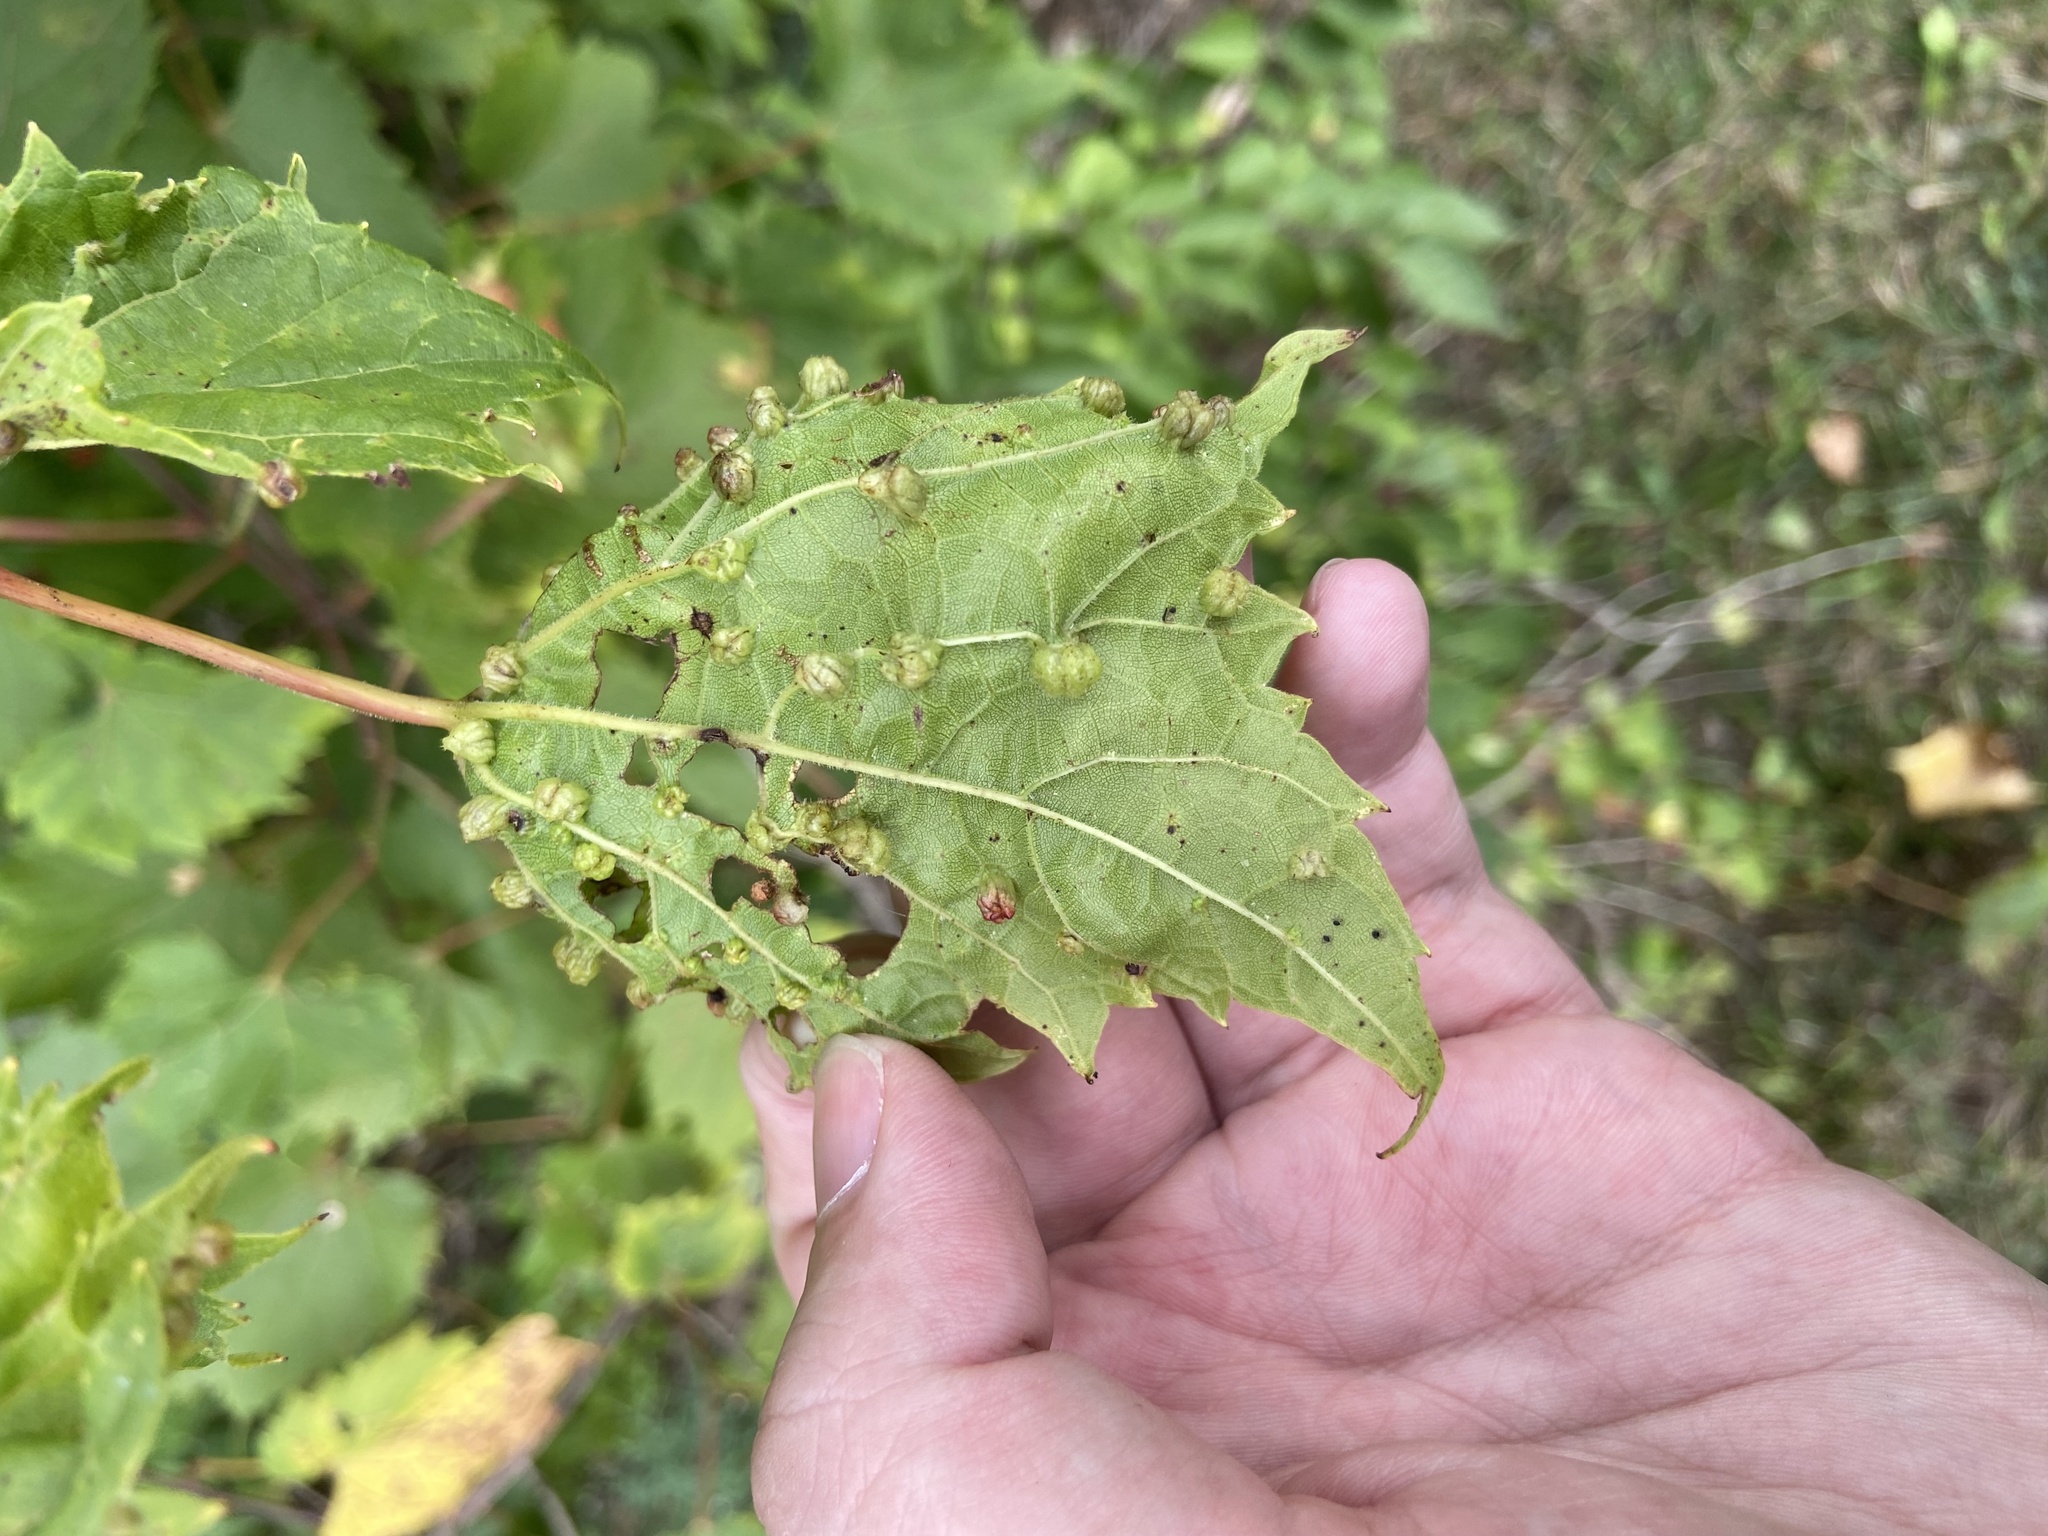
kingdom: Animalia
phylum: Arthropoda
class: Insecta
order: Hemiptera
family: Phylloxeridae
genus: Daktulosphaira
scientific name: Daktulosphaira vitifoliae
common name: Grape phylloxera
